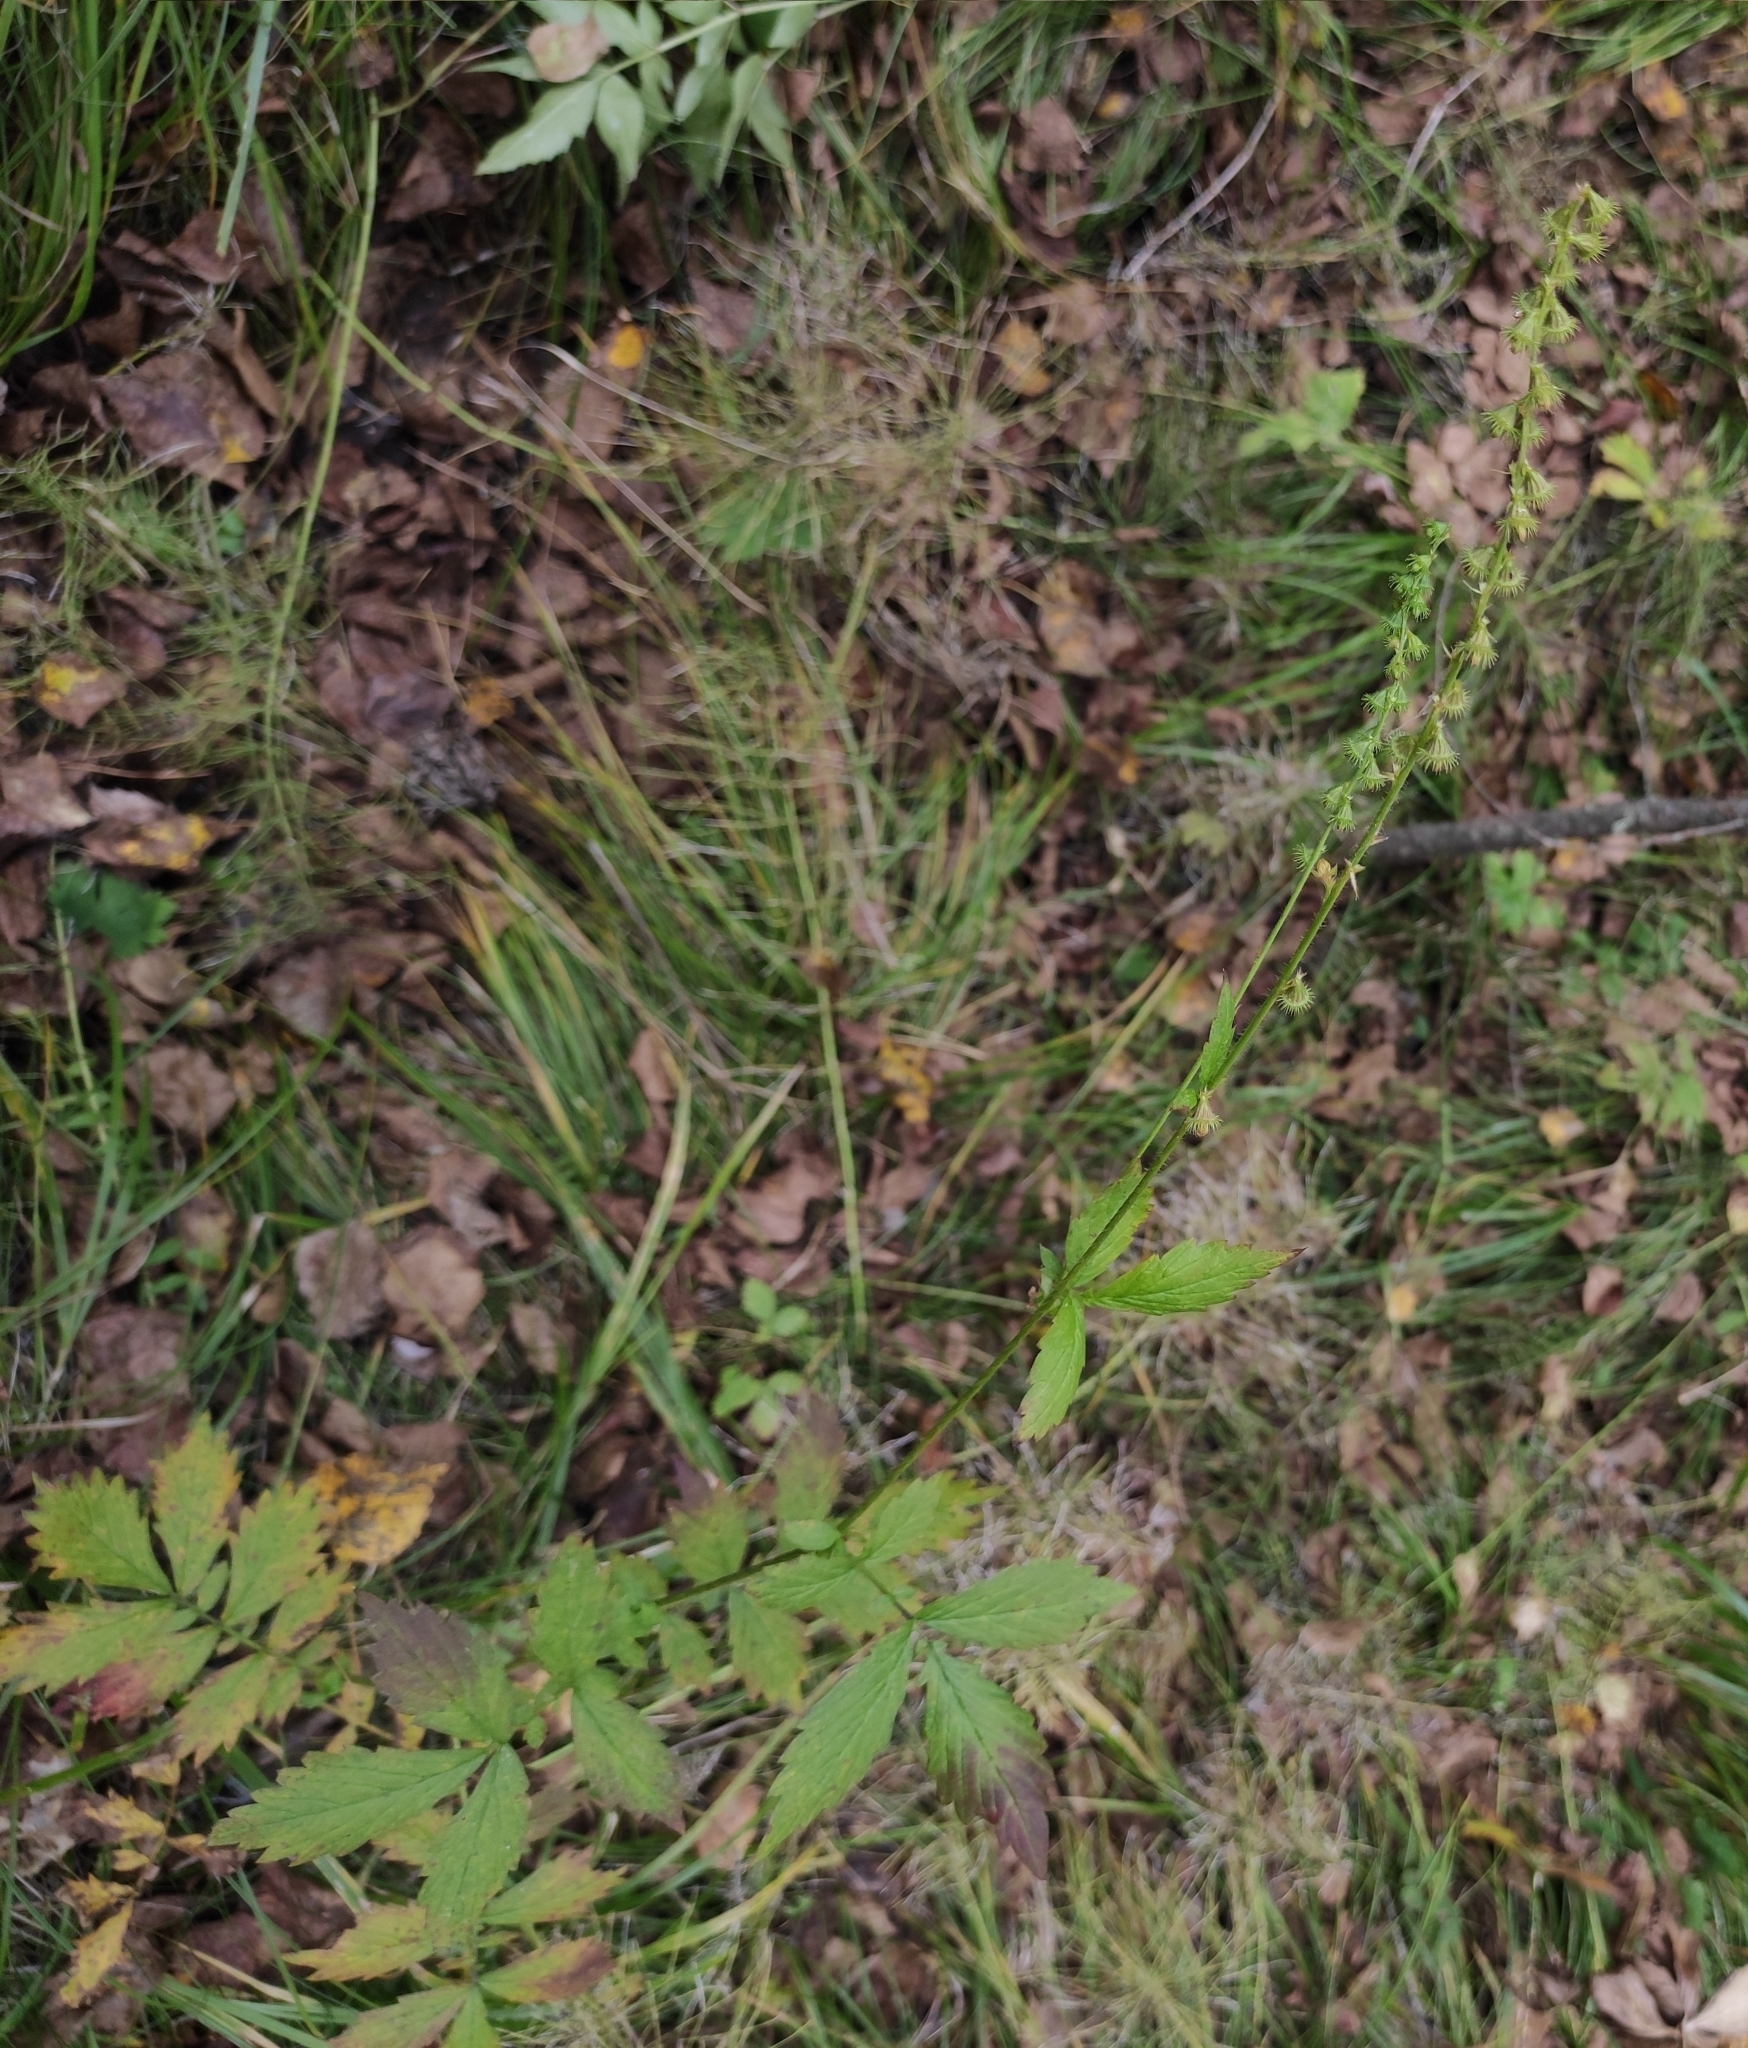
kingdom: Plantae
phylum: Tracheophyta
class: Magnoliopsida
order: Rosales
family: Rosaceae
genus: Agrimonia
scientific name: Agrimonia pilosa
